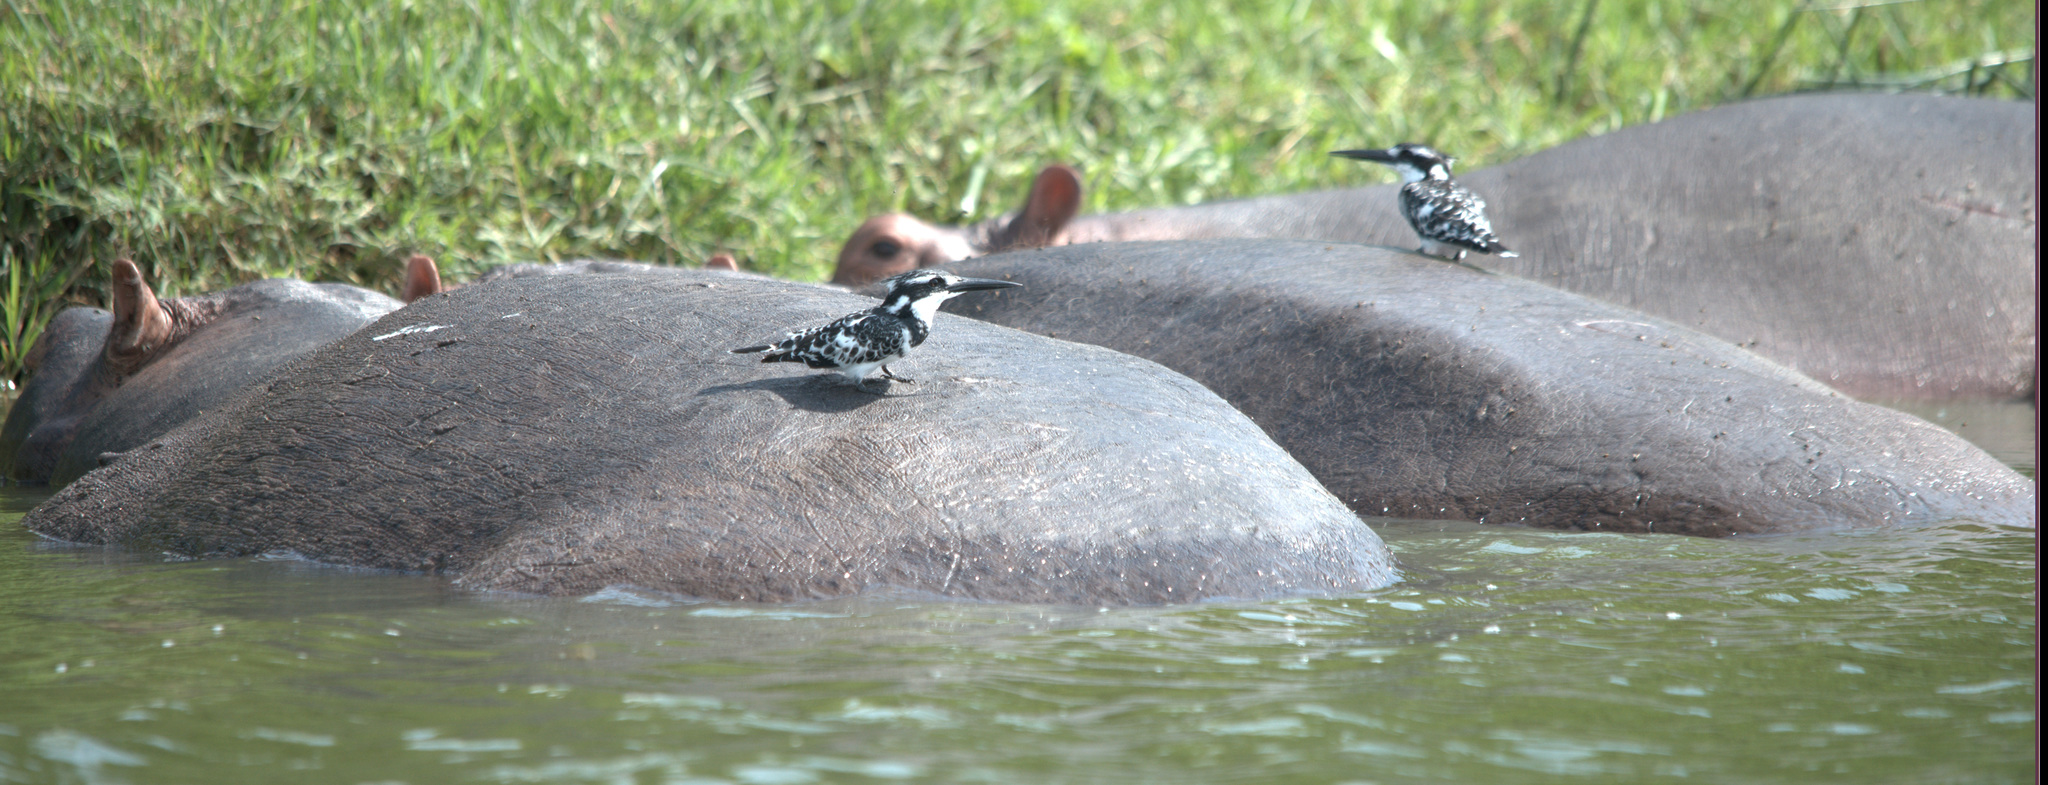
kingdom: Animalia
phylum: Chordata
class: Aves
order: Coraciiformes
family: Alcedinidae
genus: Ceryle
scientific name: Ceryle rudis
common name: Pied kingfisher
